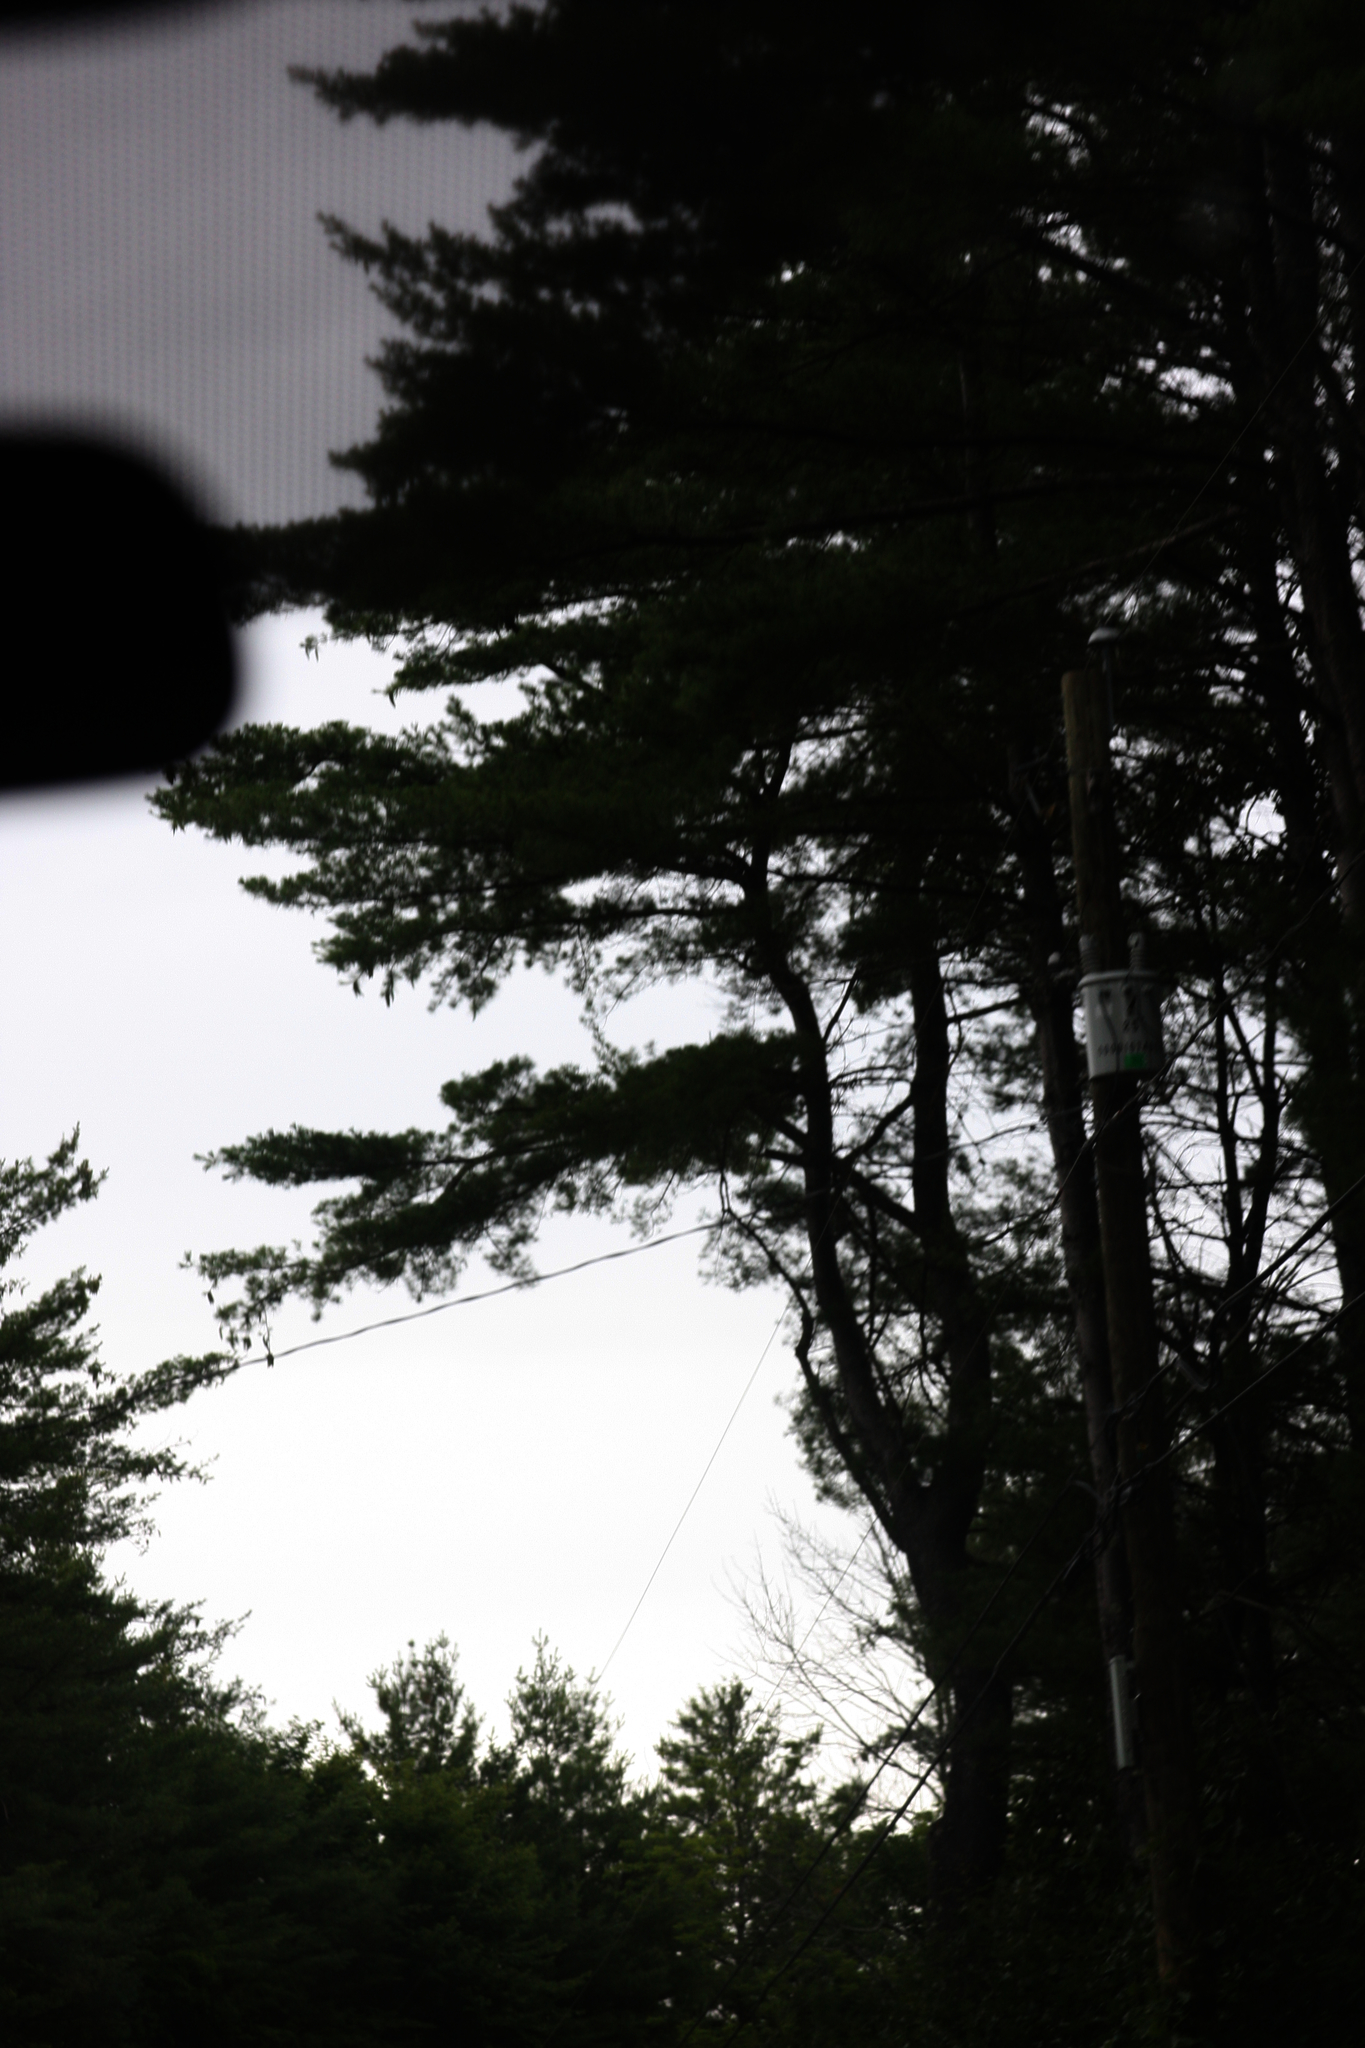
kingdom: Plantae
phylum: Tracheophyta
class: Pinopsida
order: Pinales
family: Pinaceae
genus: Pinus
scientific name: Pinus strobus
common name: Weymouth pine
